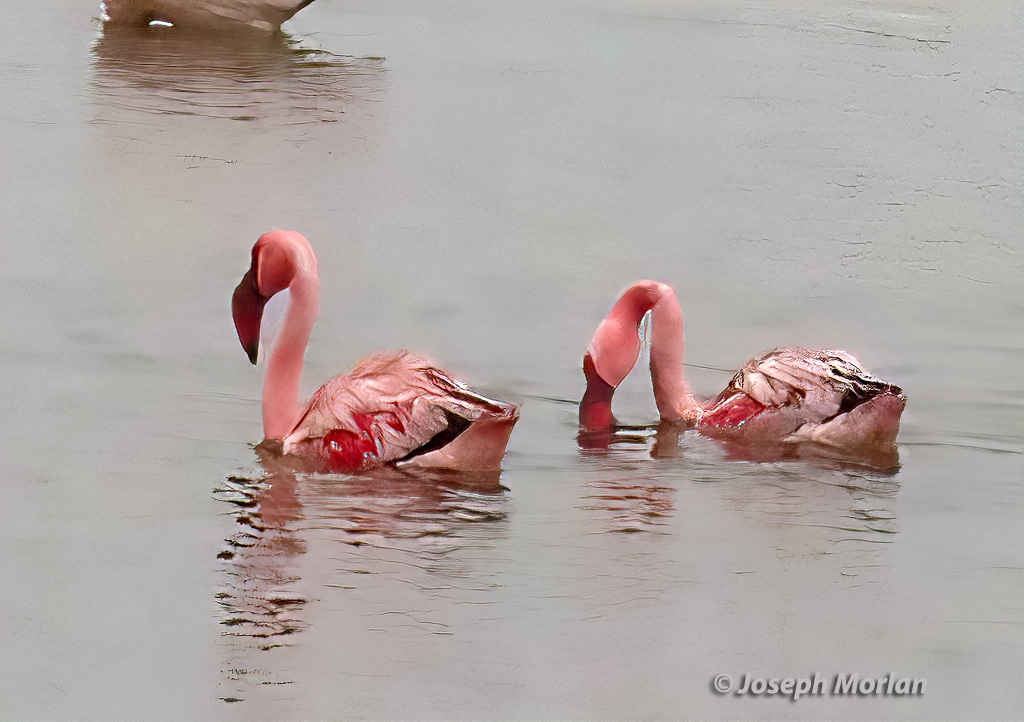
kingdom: Animalia
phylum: Chordata
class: Aves
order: Phoenicopteriformes
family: Phoenicopteridae
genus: Phoeniconaias
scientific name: Phoeniconaias minor
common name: Lesser flamingo
